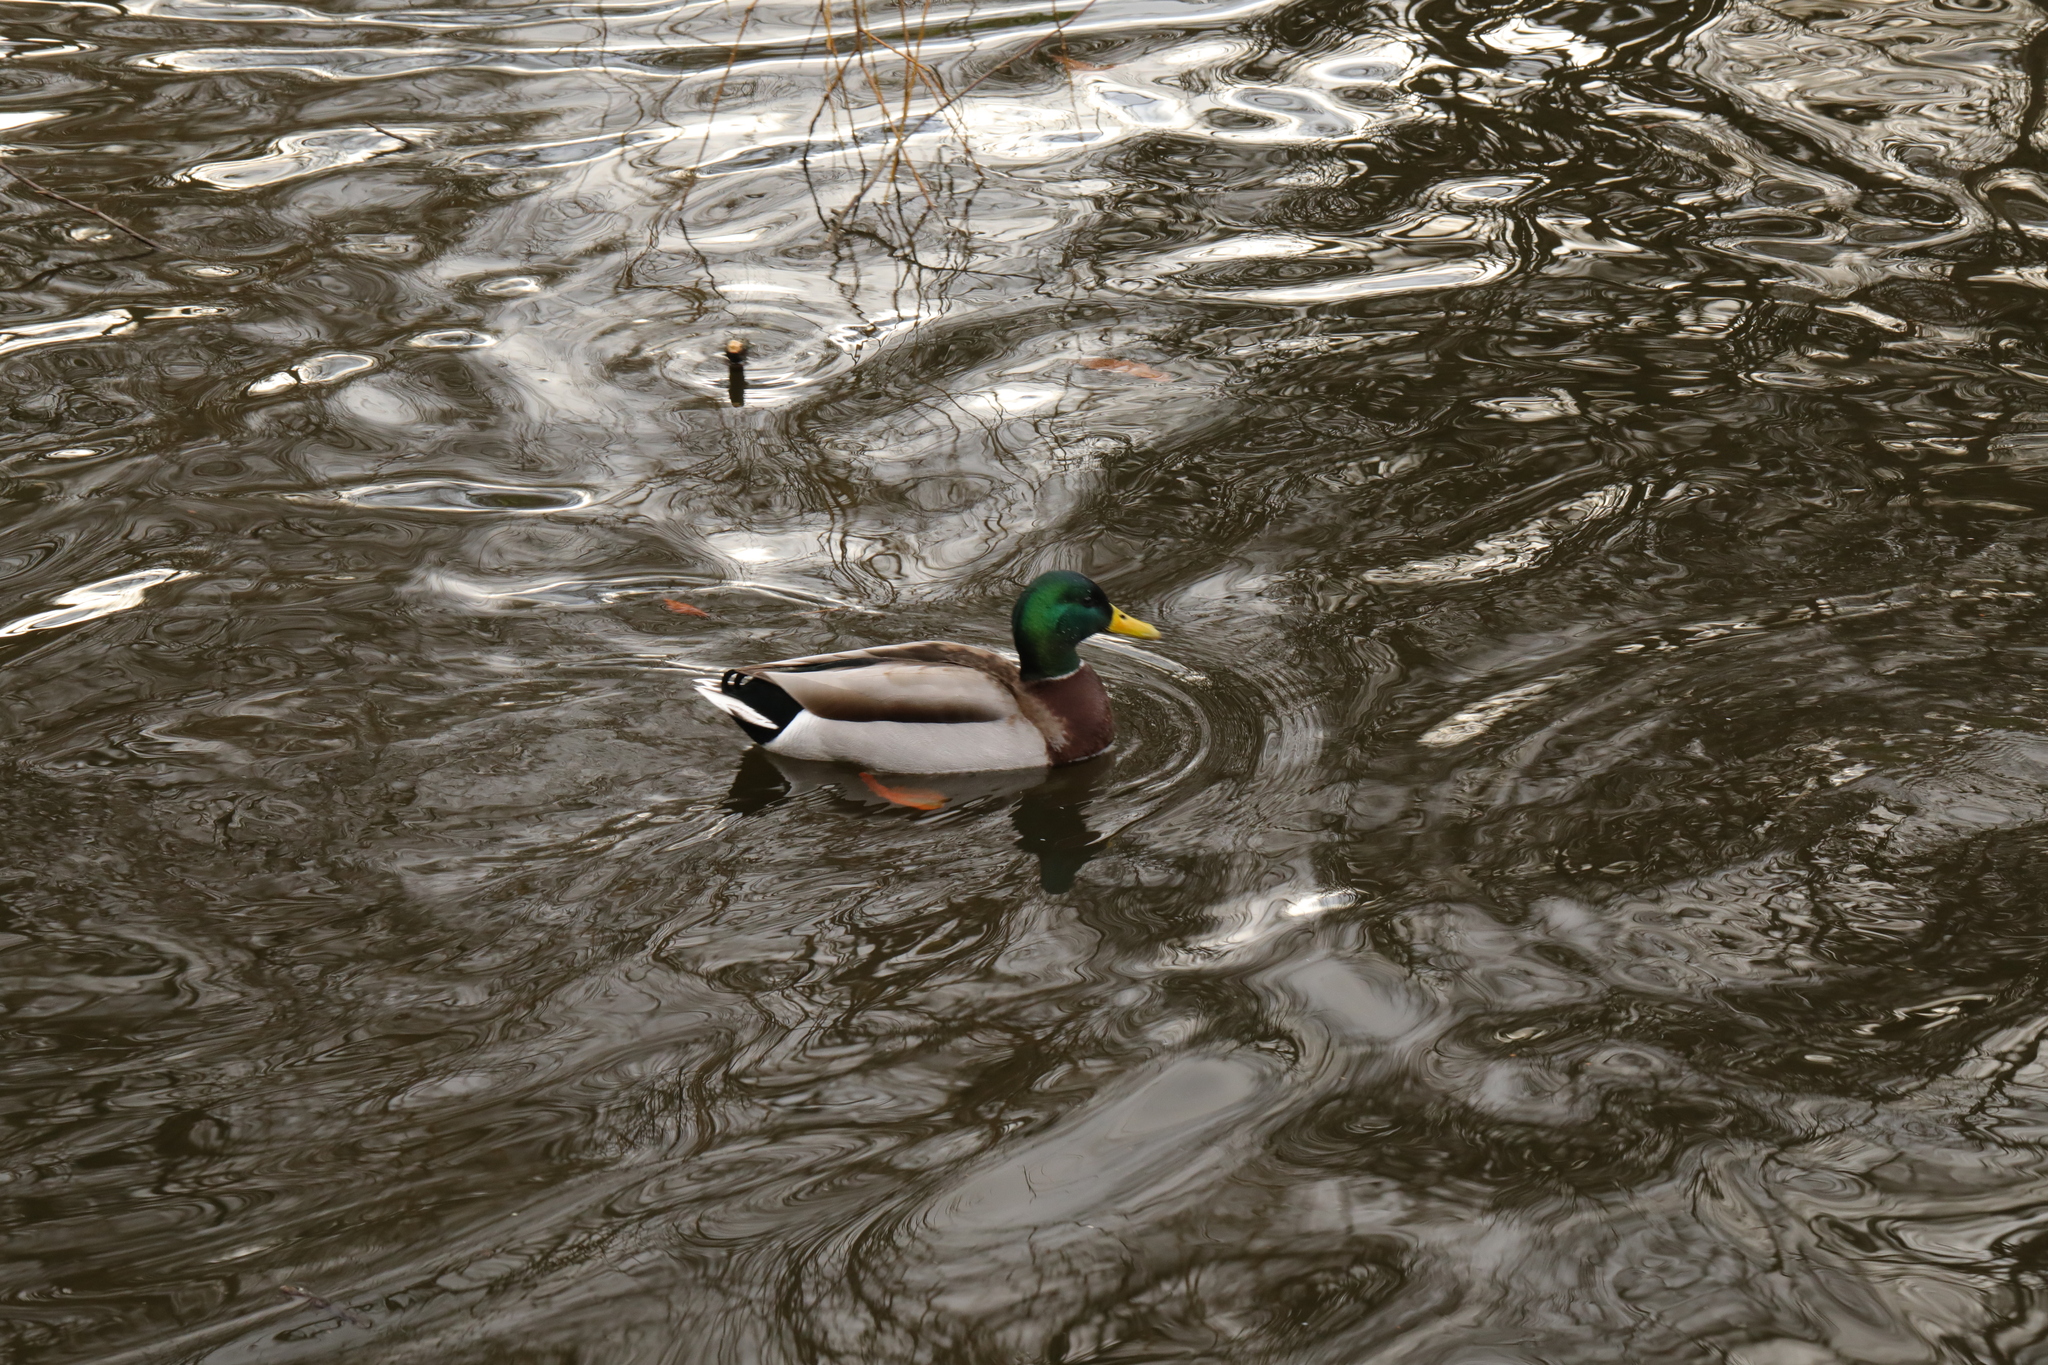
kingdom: Animalia
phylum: Chordata
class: Aves
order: Anseriformes
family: Anatidae
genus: Anas
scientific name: Anas platyrhynchos
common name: Mallard
